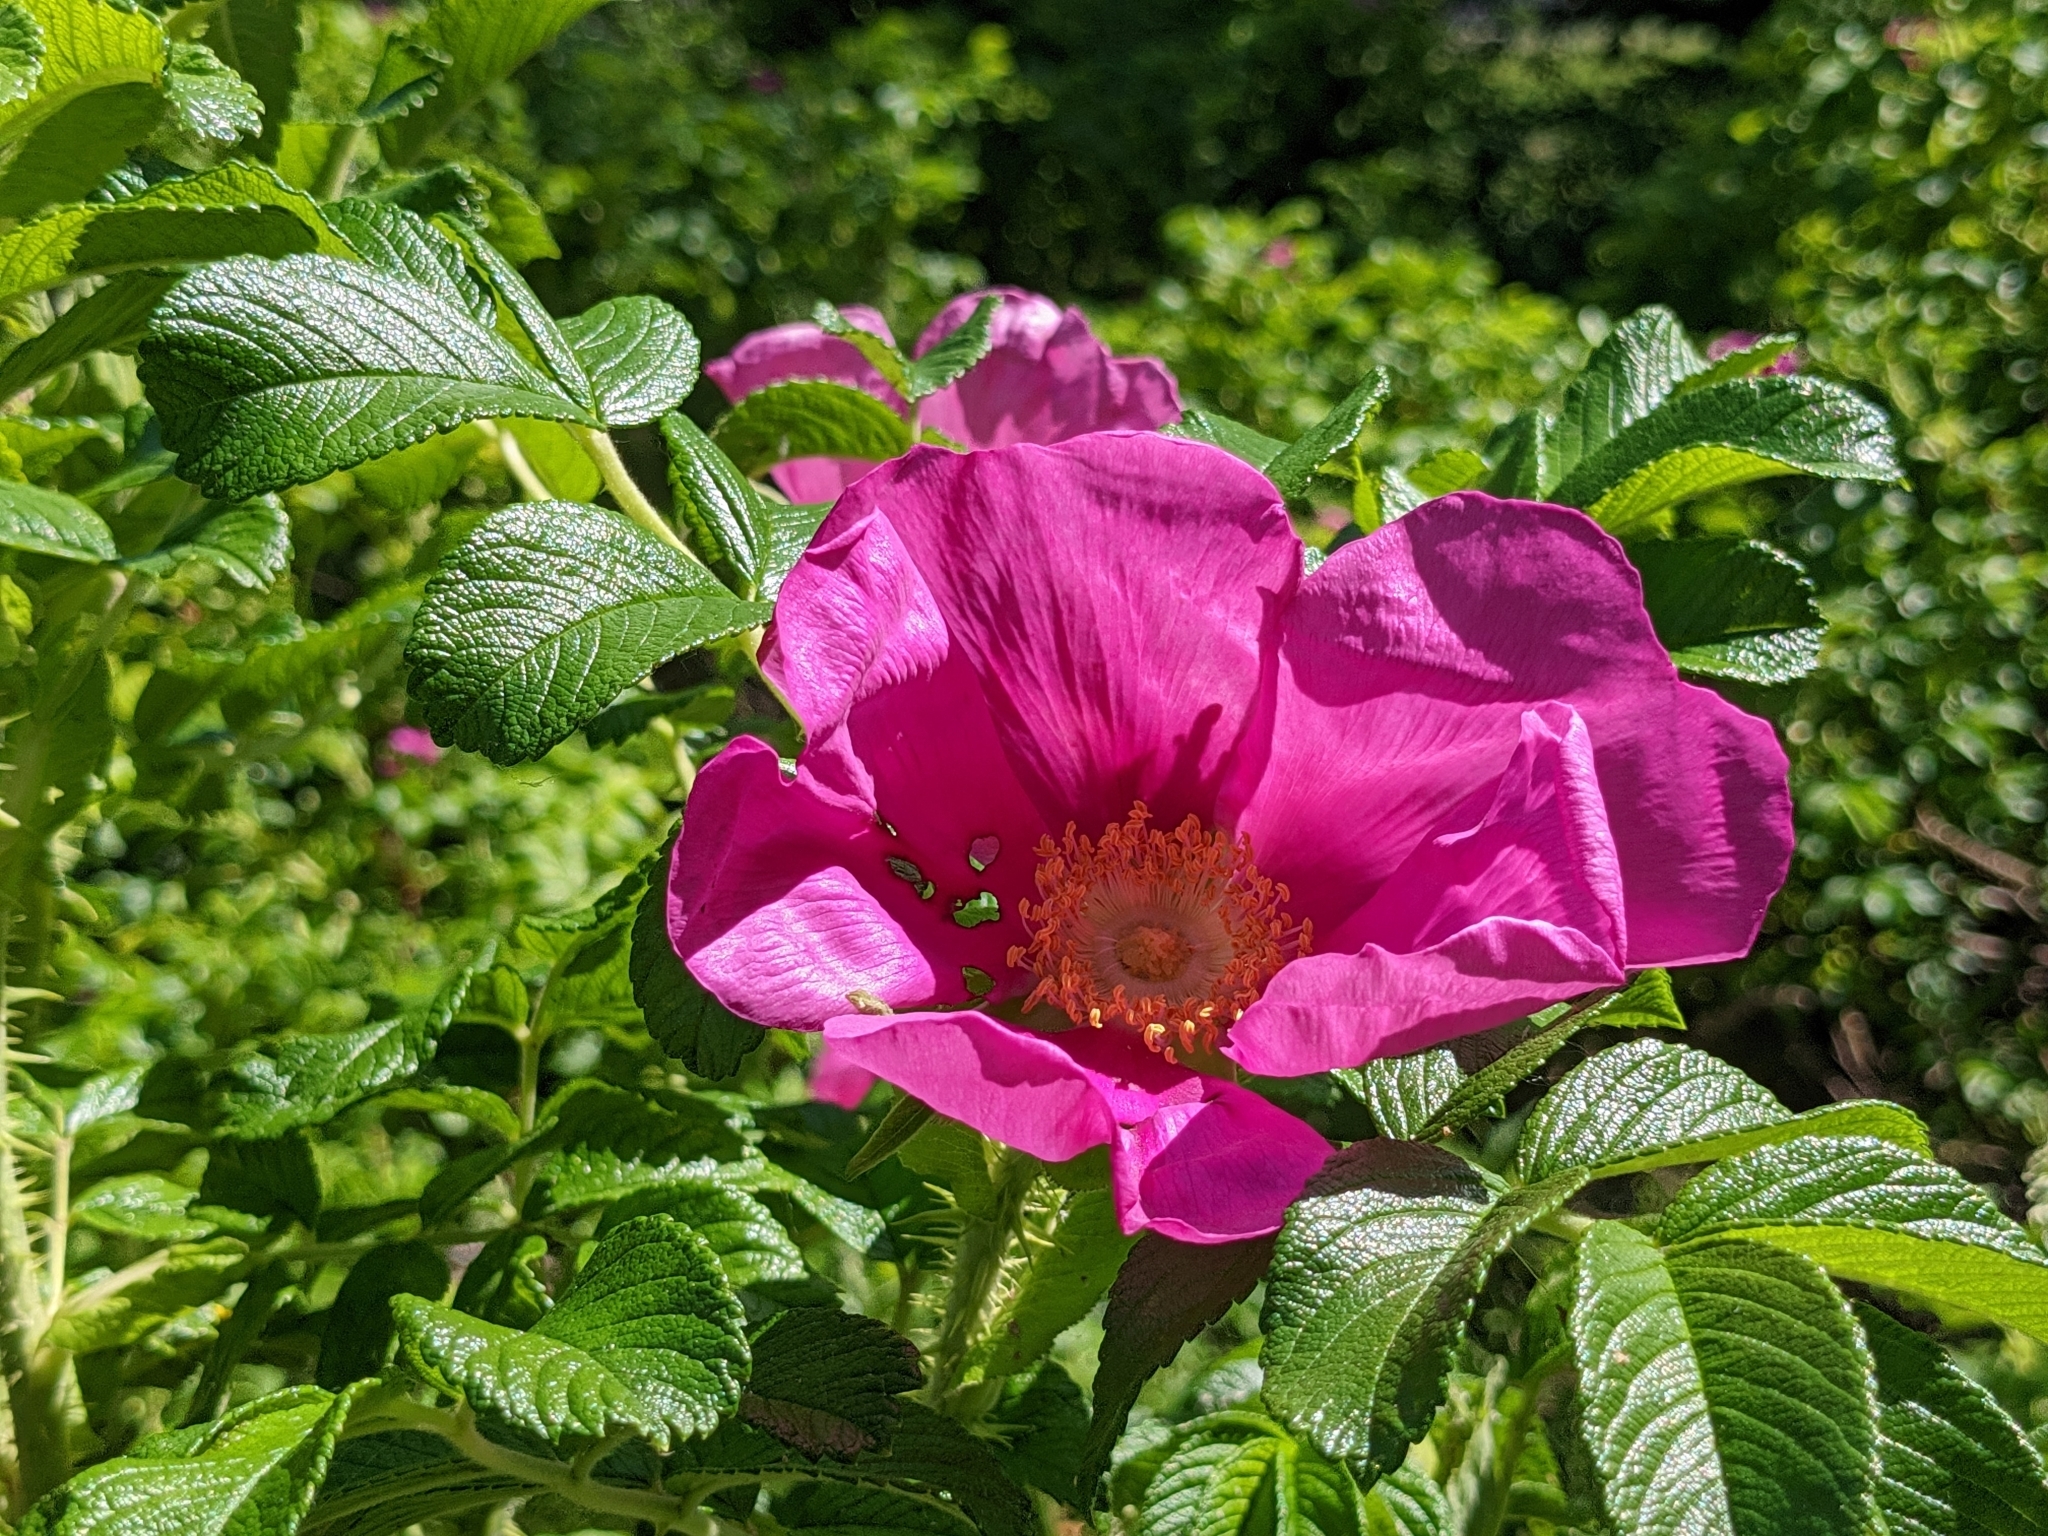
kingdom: Plantae
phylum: Tracheophyta
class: Magnoliopsida
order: Rosales
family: Rosaceae
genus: Rosa
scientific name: Rosa rugosa
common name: Japanese rose
